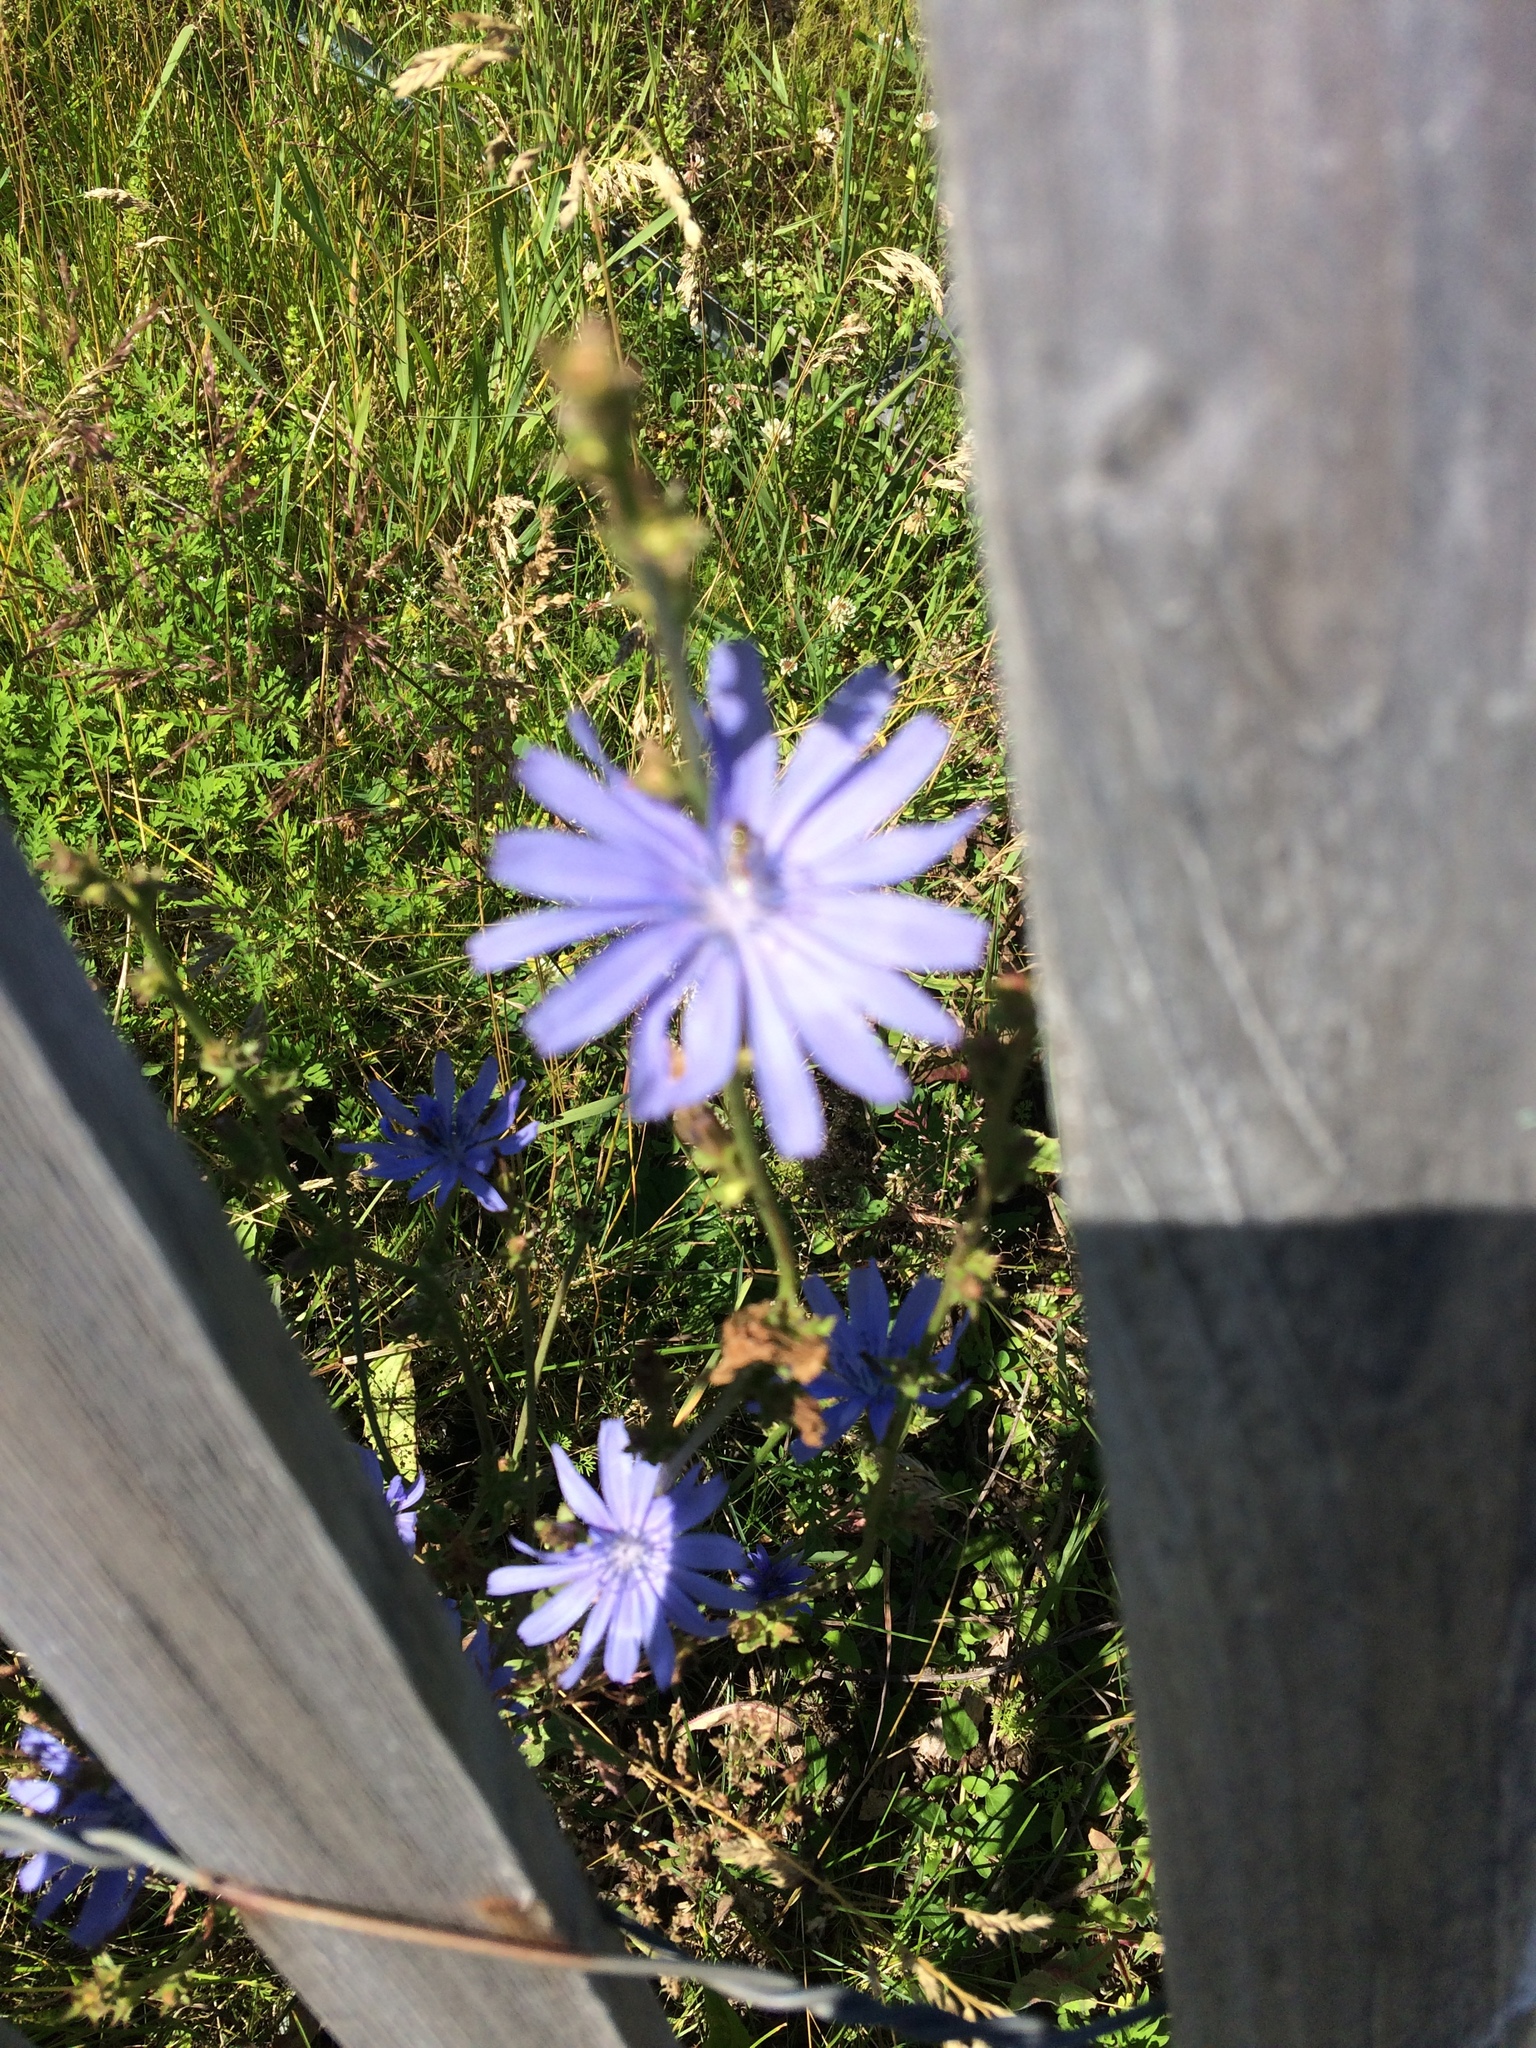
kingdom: Plantae
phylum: Tracheophyta
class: Magnoliopsida
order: Asterales
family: Asteraceae
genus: Cichorium
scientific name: Cichorium intybus
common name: Chicory
